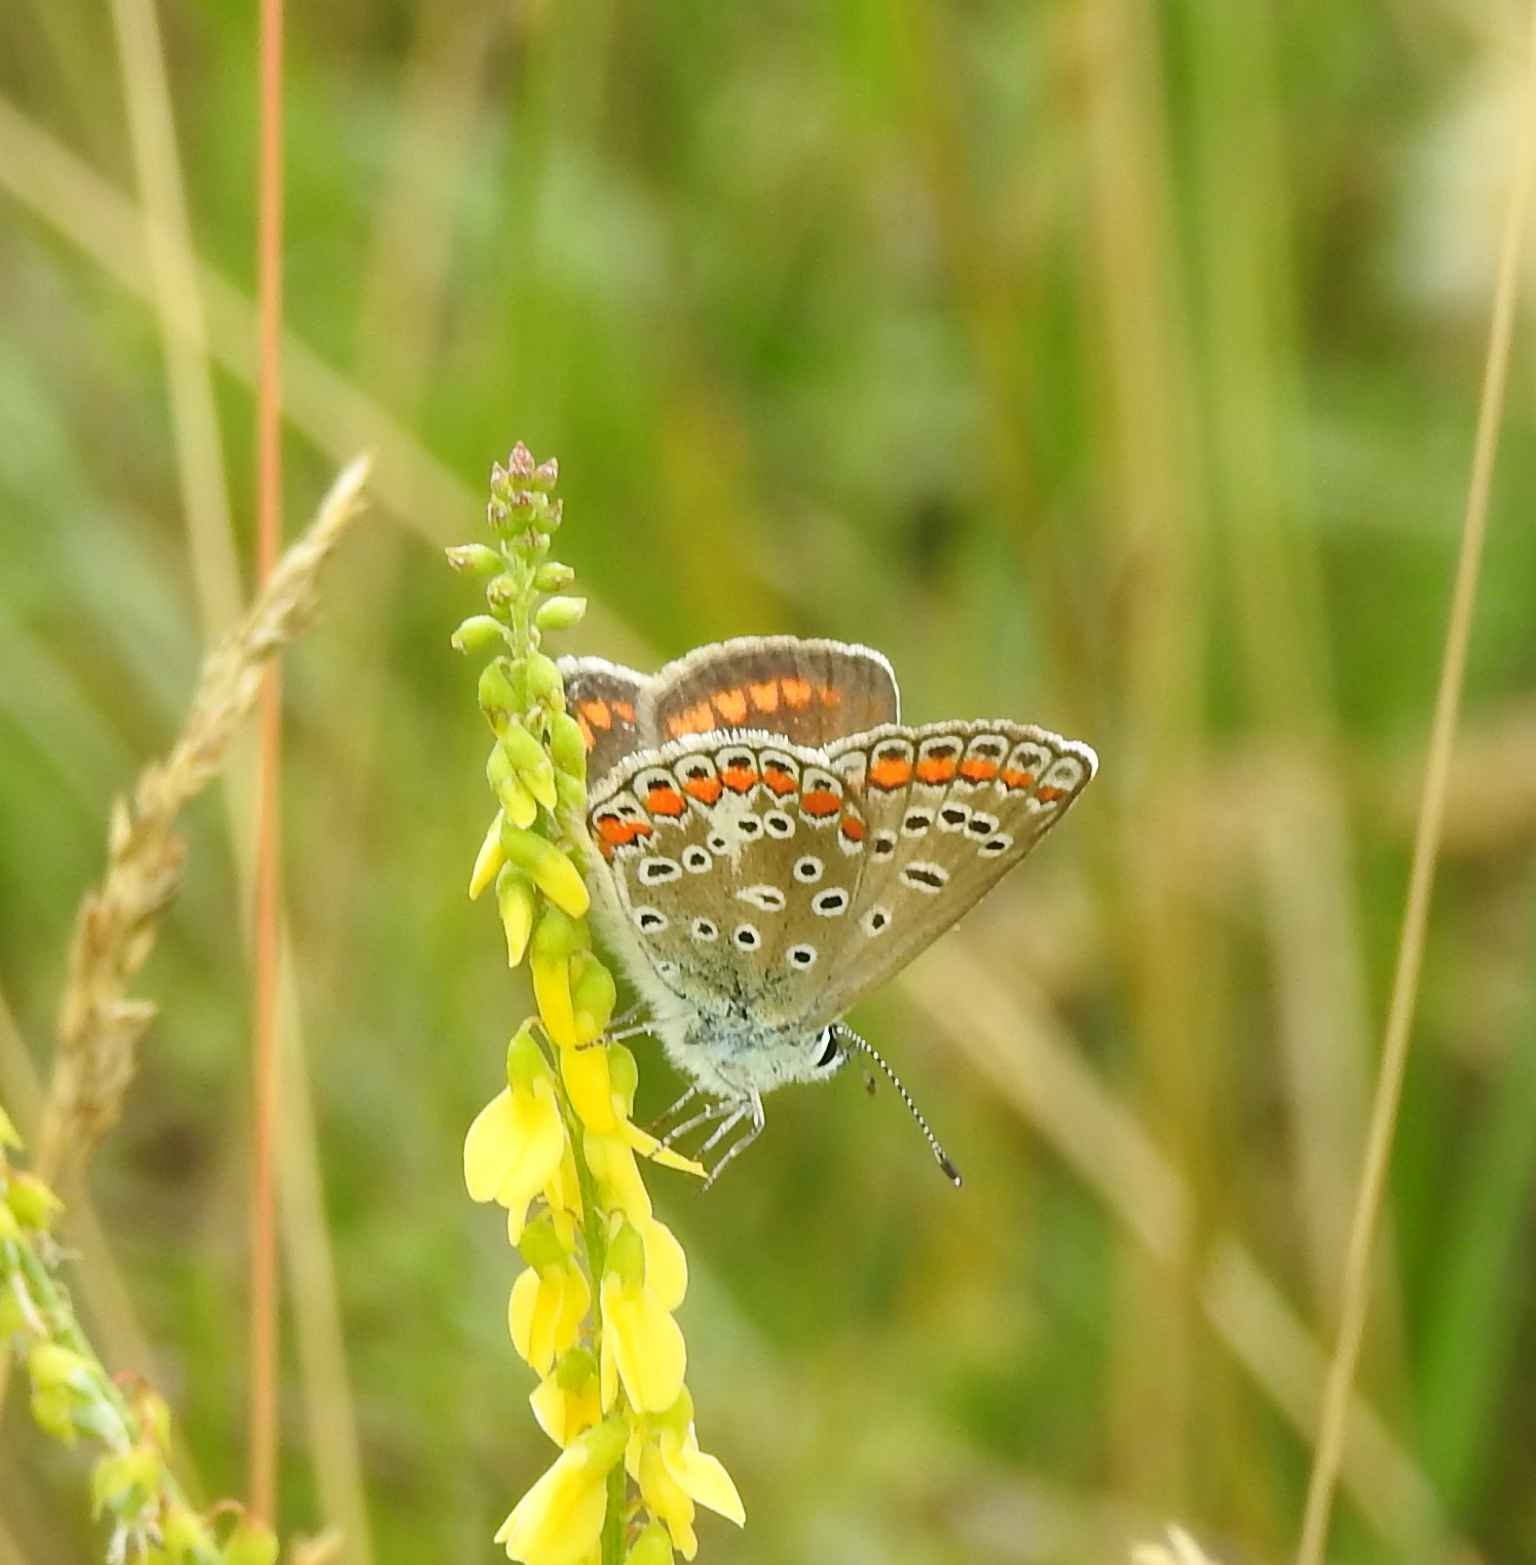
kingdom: Animalia
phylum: Arthropoda
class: Insecta
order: Lepidoptera
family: Lycaenidae
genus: Polyommatus
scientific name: Polyommatus icarus
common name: Common blue
